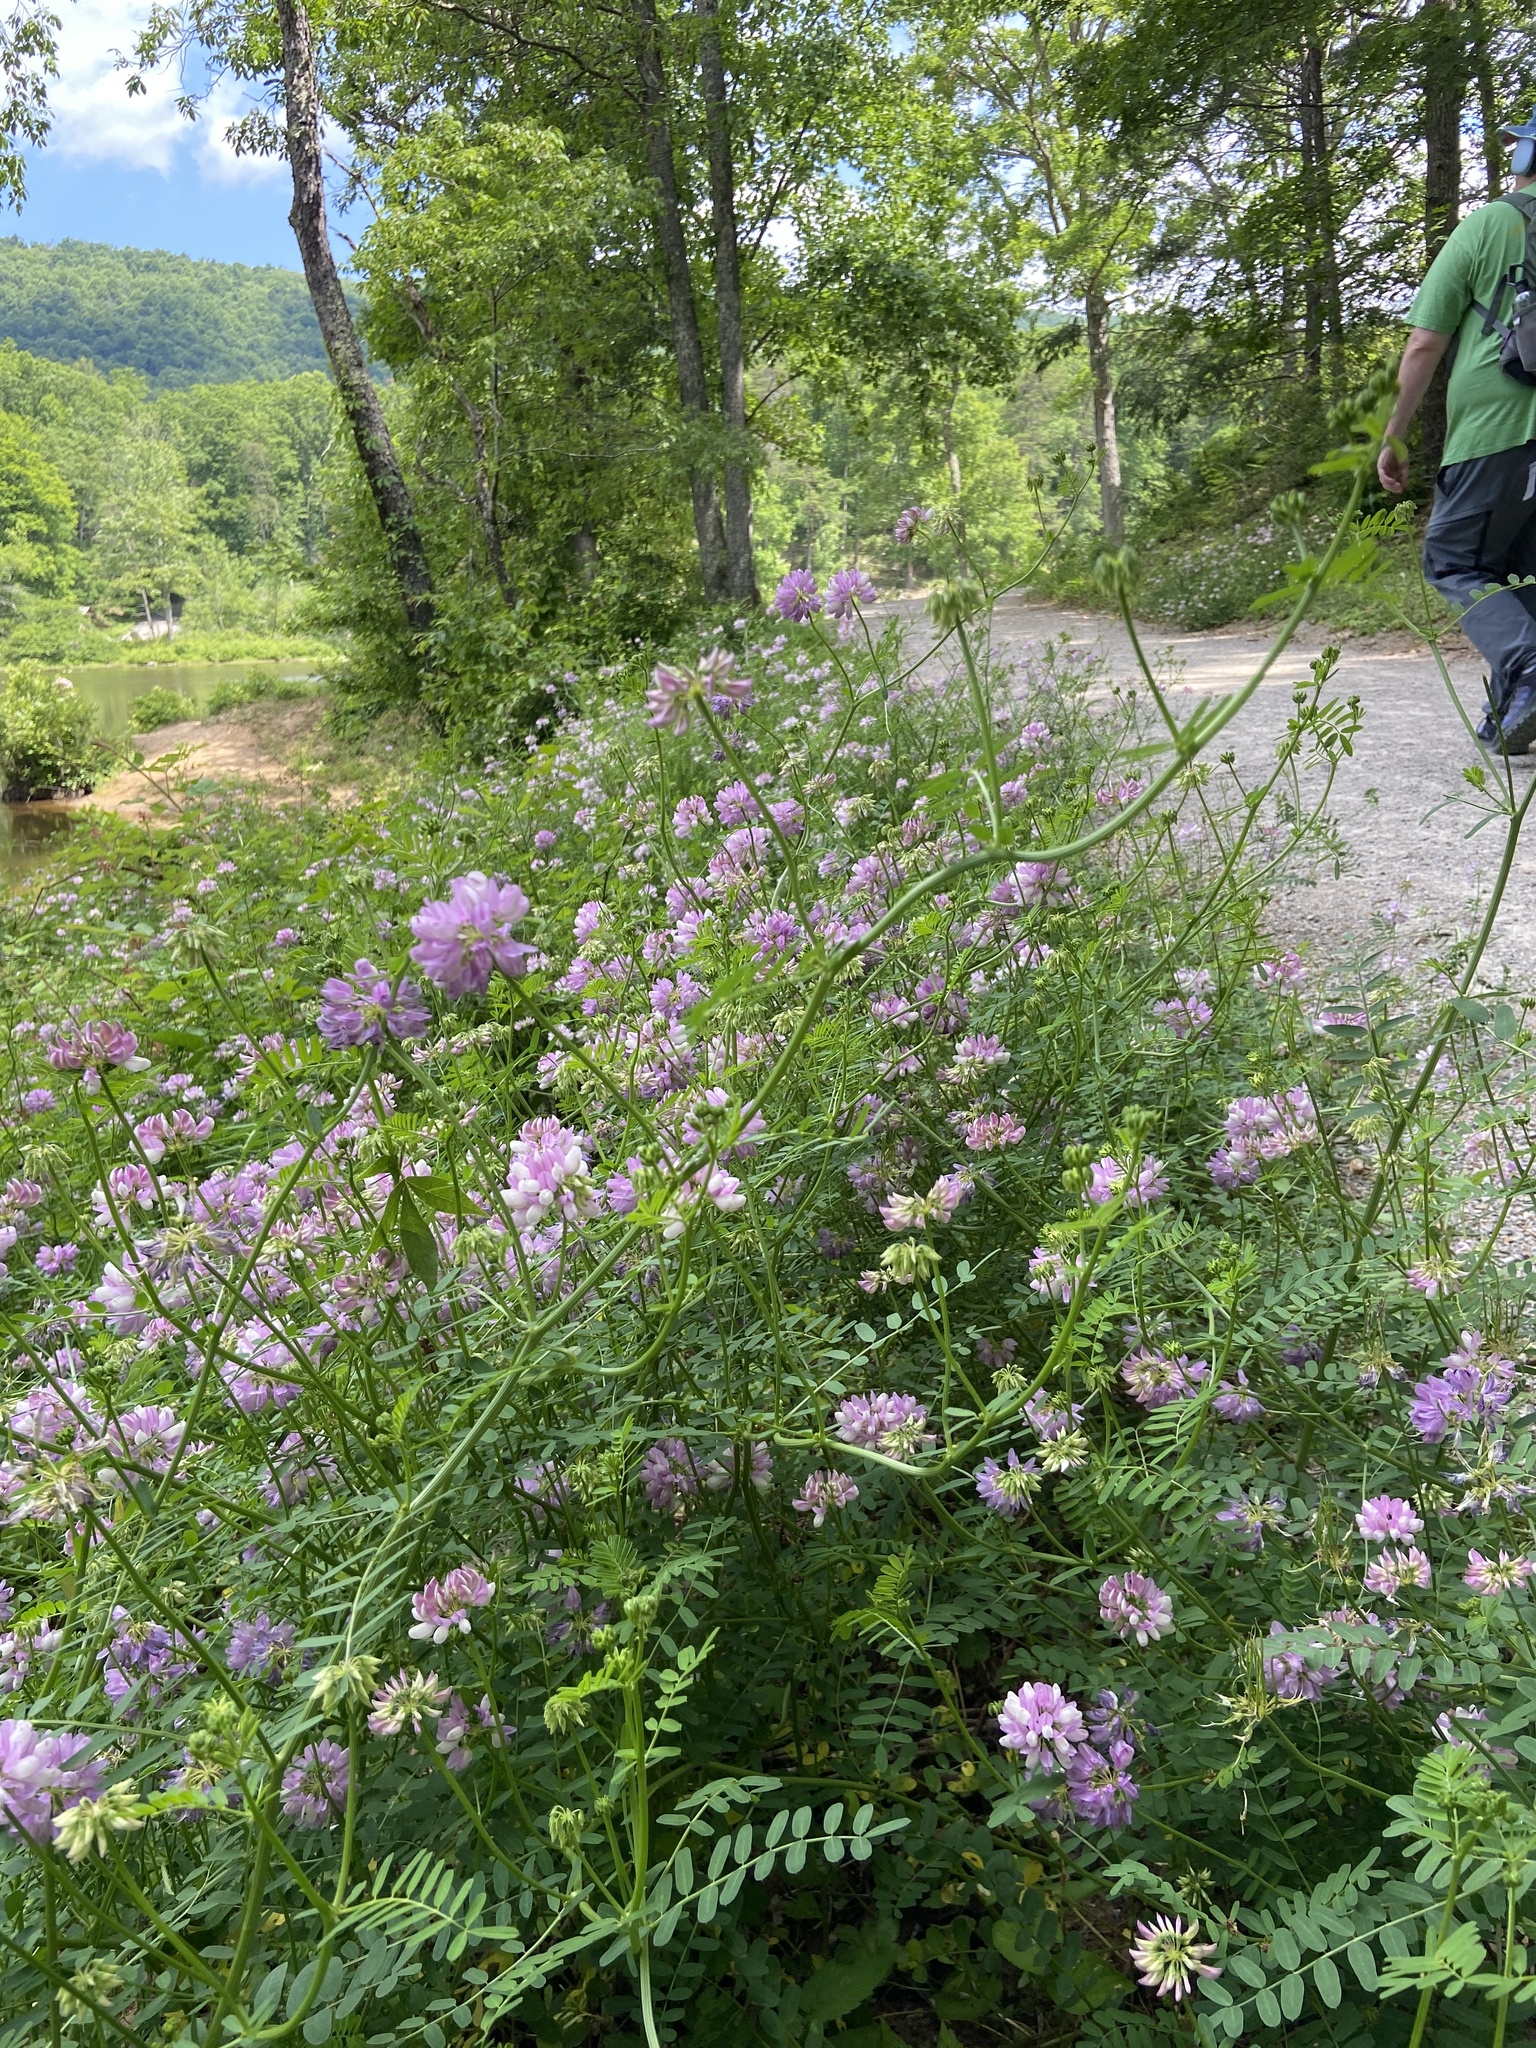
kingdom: Plantae
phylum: Tracheophyta
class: Magnoliopsida
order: Fabales
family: Fabaceae
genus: Coronilla
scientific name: Coronilla varia
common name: Crownvetch
